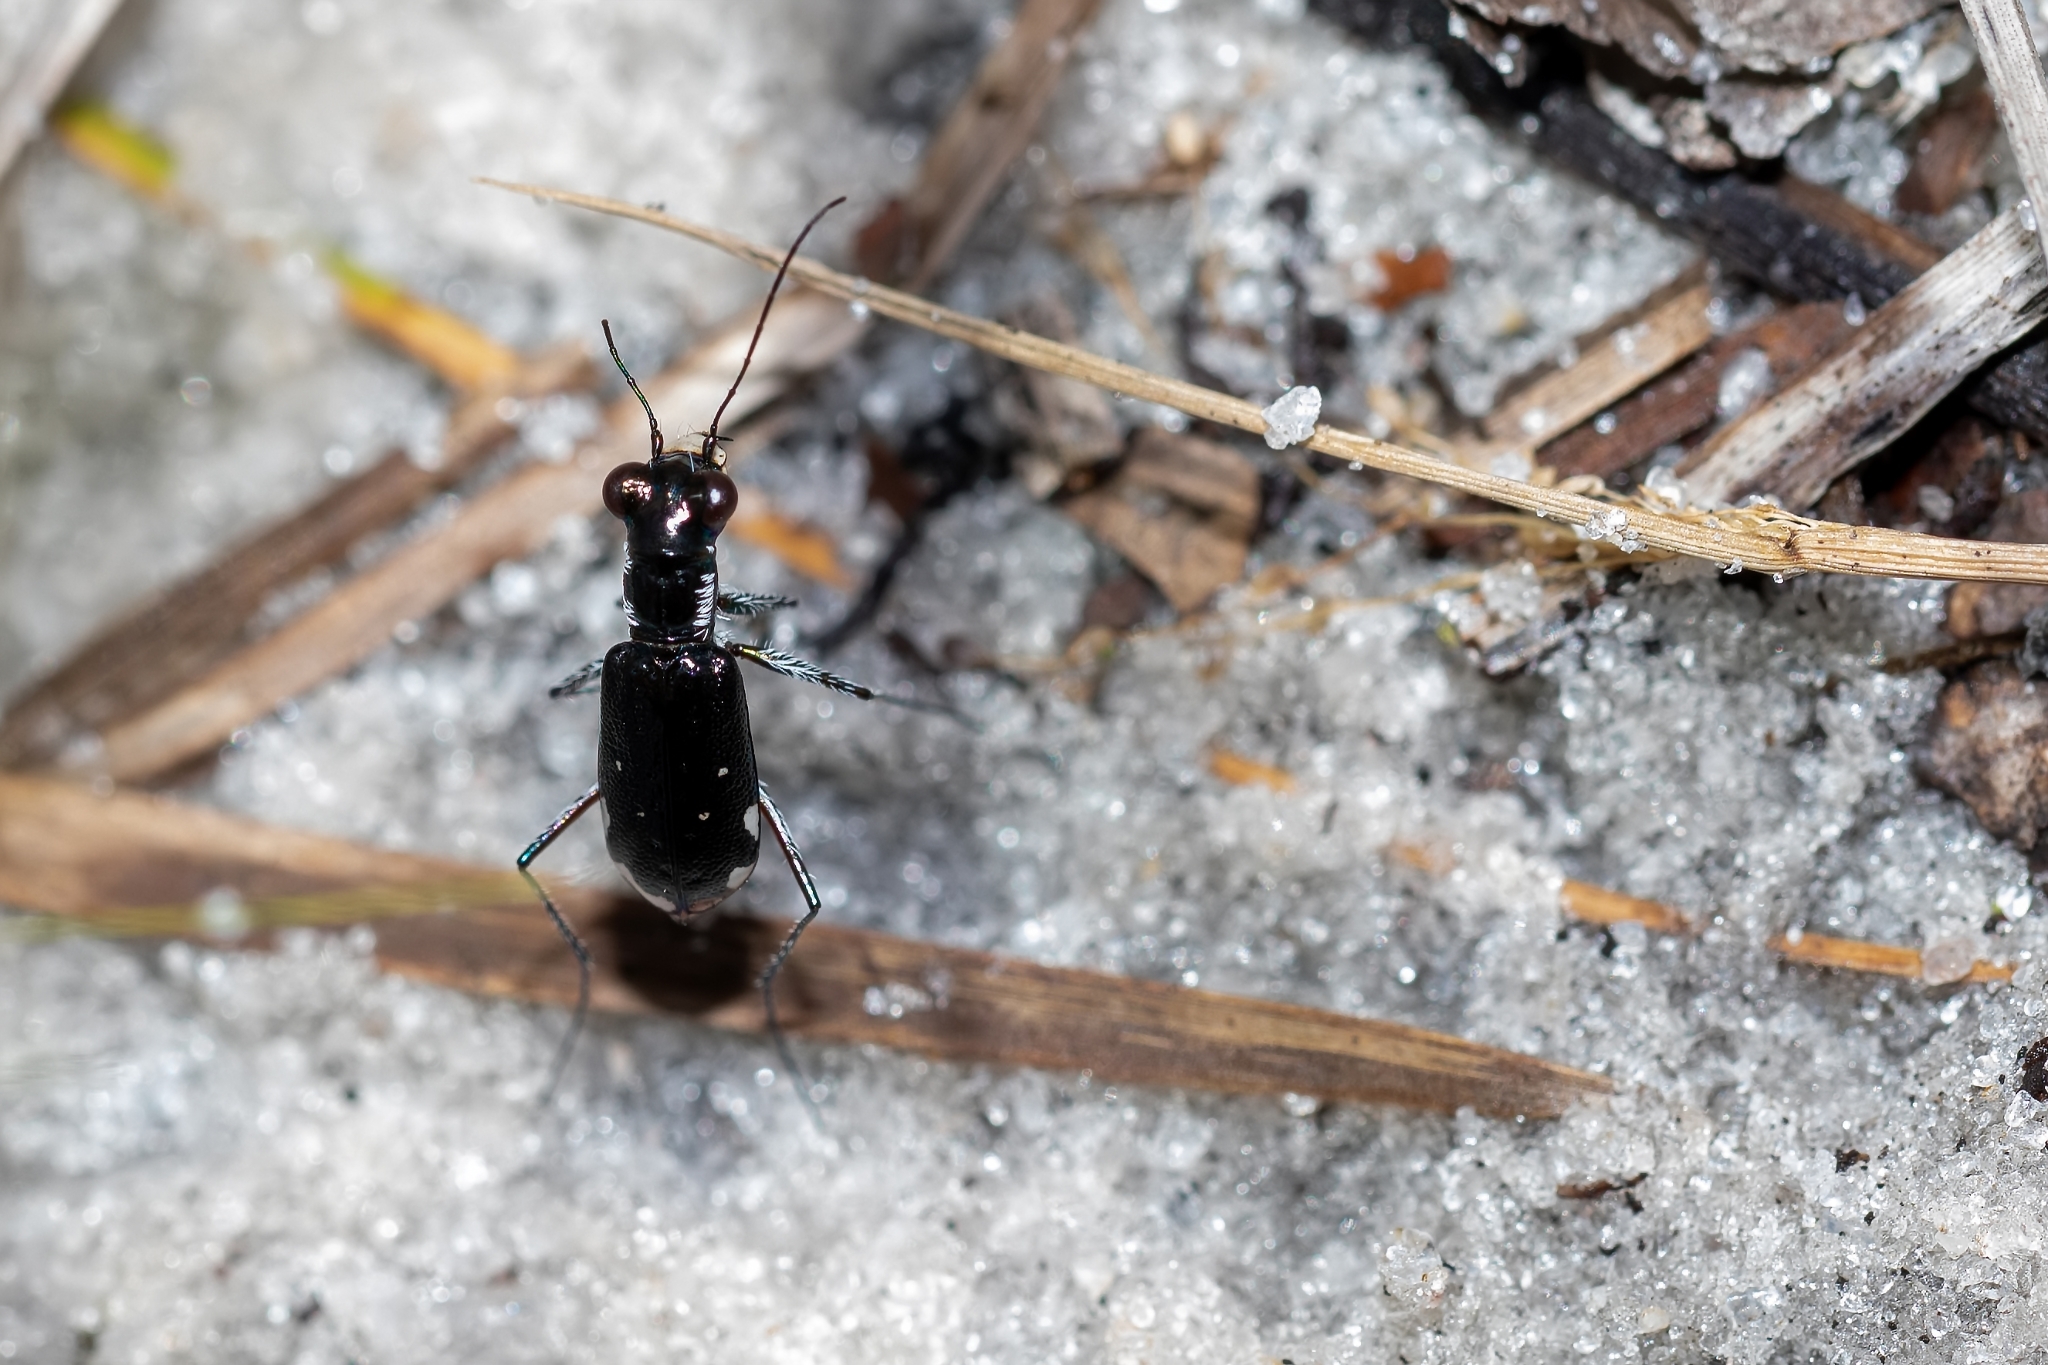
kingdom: Animalia
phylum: Arthropoda
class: Insecta
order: Coleoptera
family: Carabidae
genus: Cicindela
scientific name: Cicindela scabrosa
